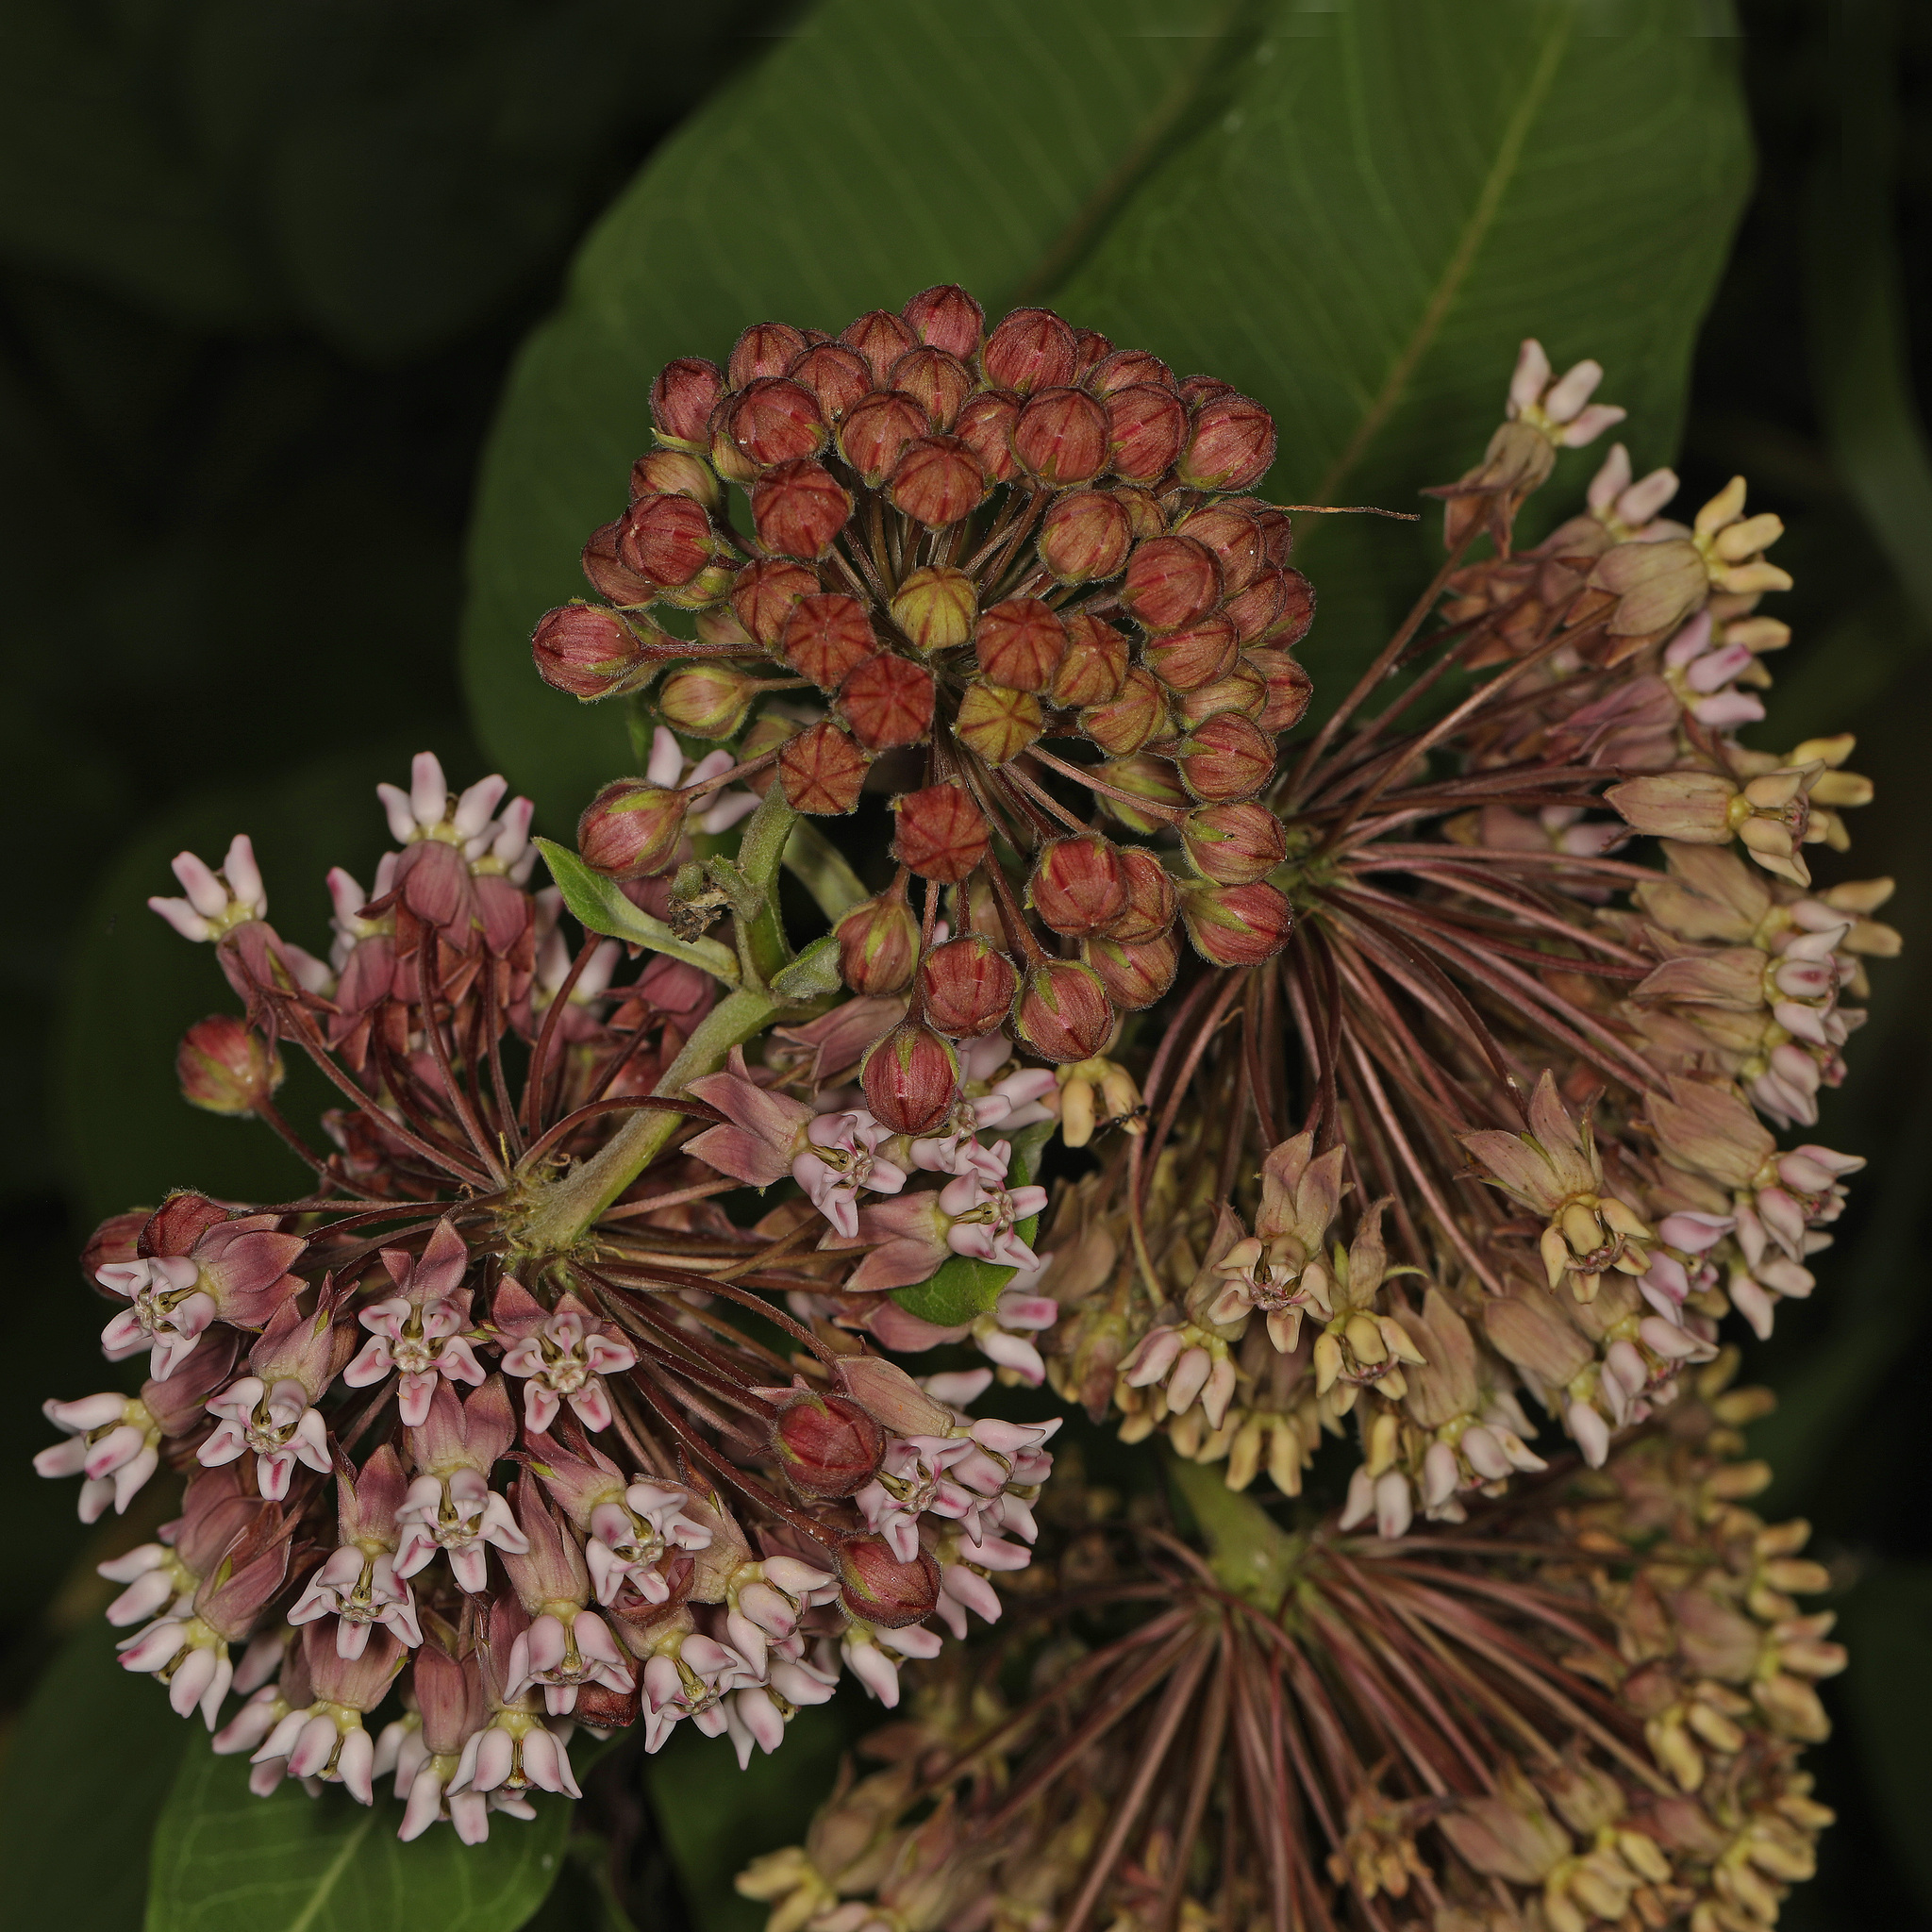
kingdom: Plantae
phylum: Tracheophyta
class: Magnoliopsida
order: Gentianales
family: Apocynaceae
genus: Asclepias
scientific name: Asclepias syriaca
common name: Common milkweed
